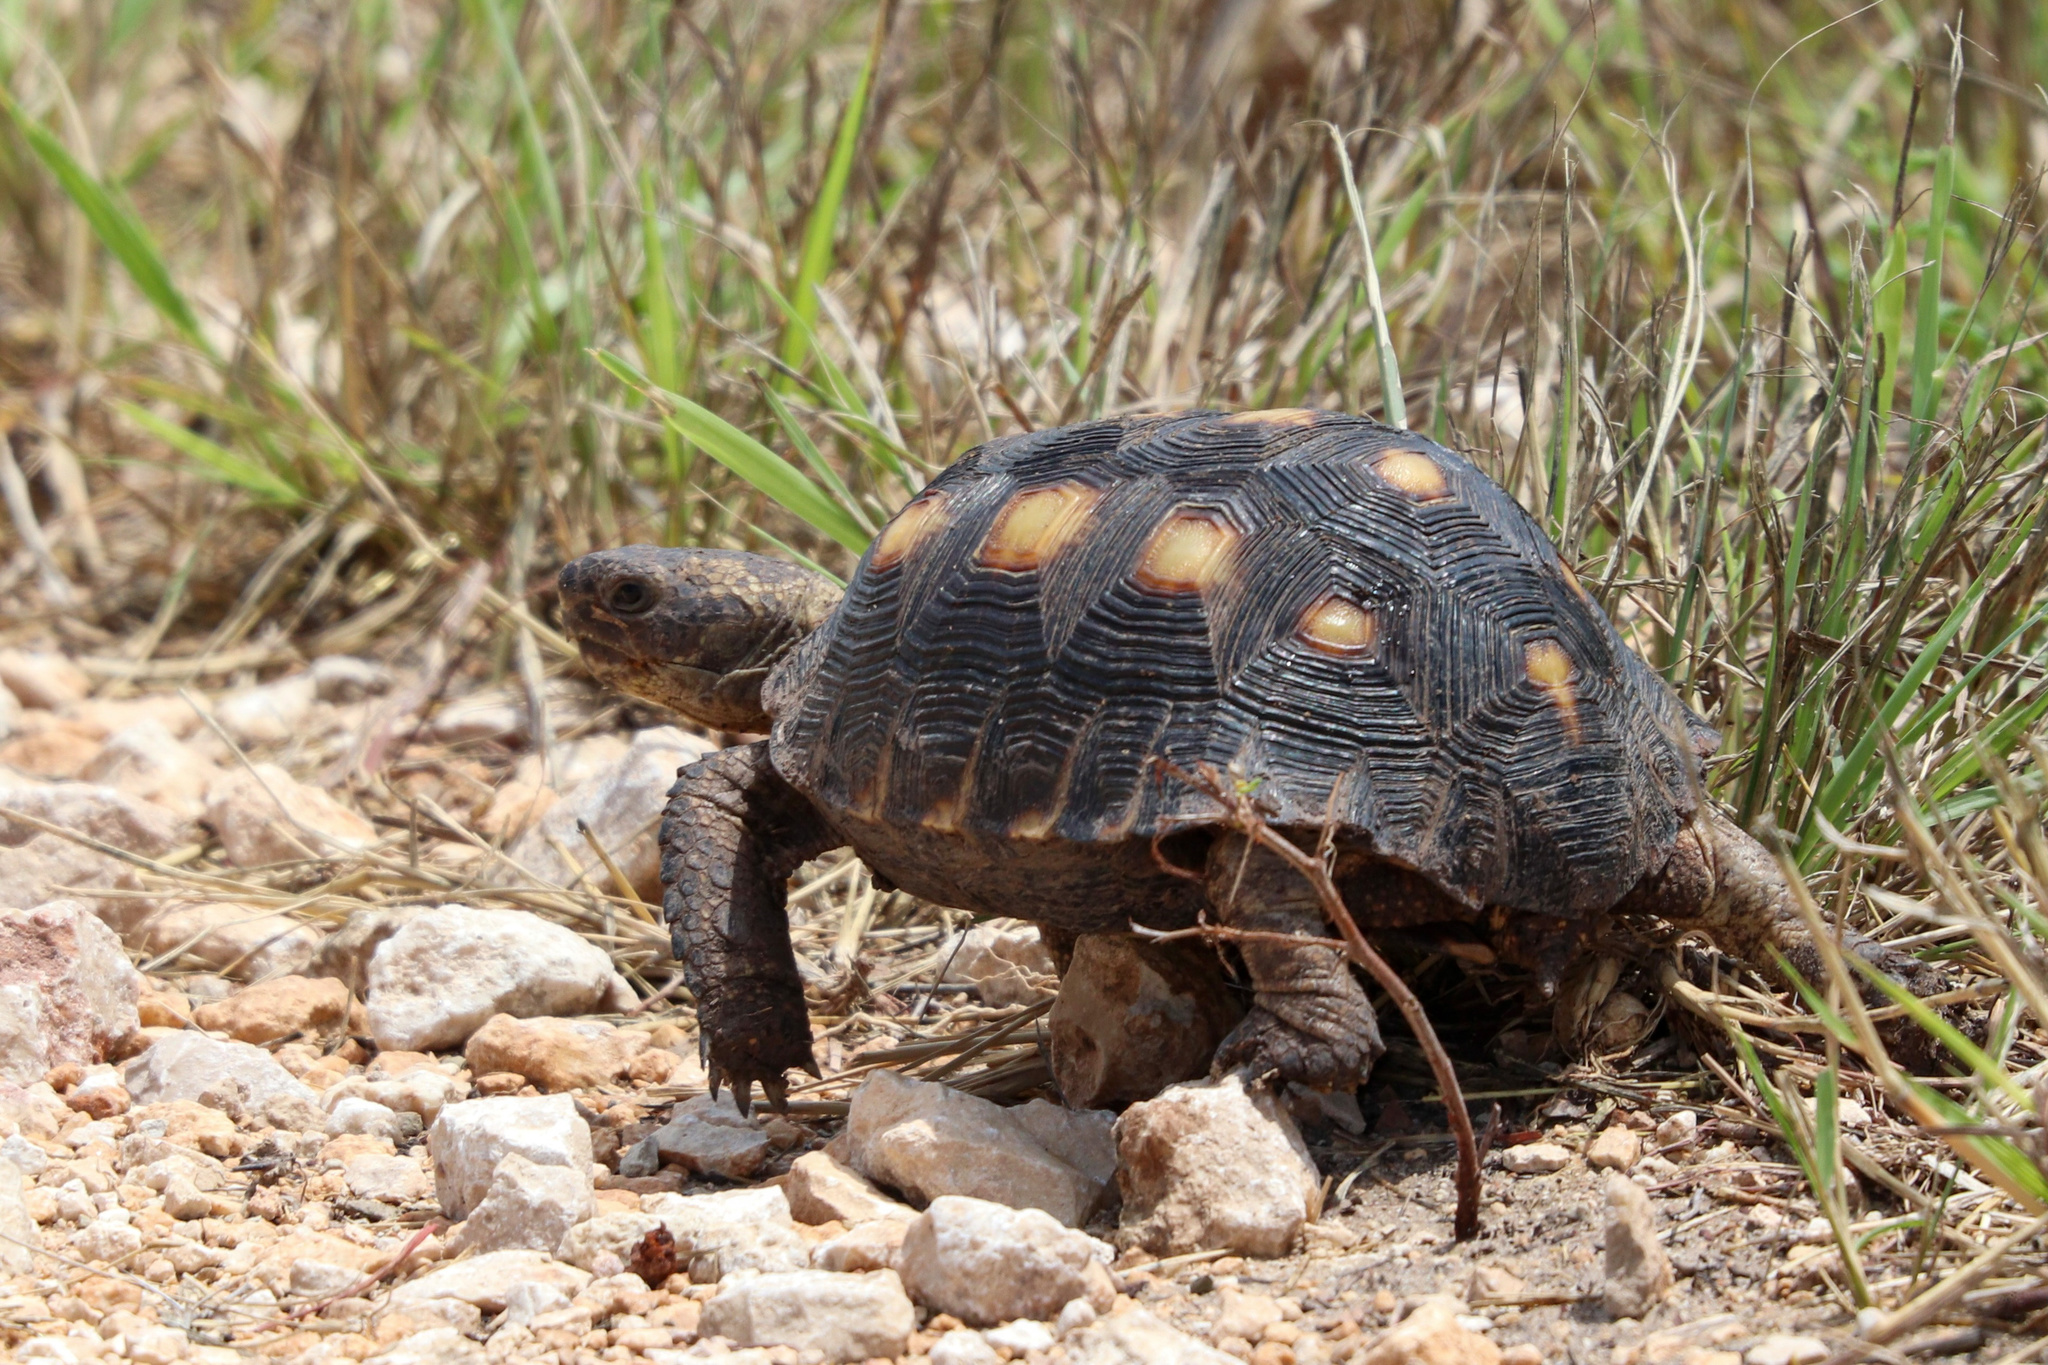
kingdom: Animalia
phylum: Chordata
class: Testudines
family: Testudinidae
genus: Gopherus
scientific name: Gopherus berlandieri
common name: Texas (gopher )tortoise
